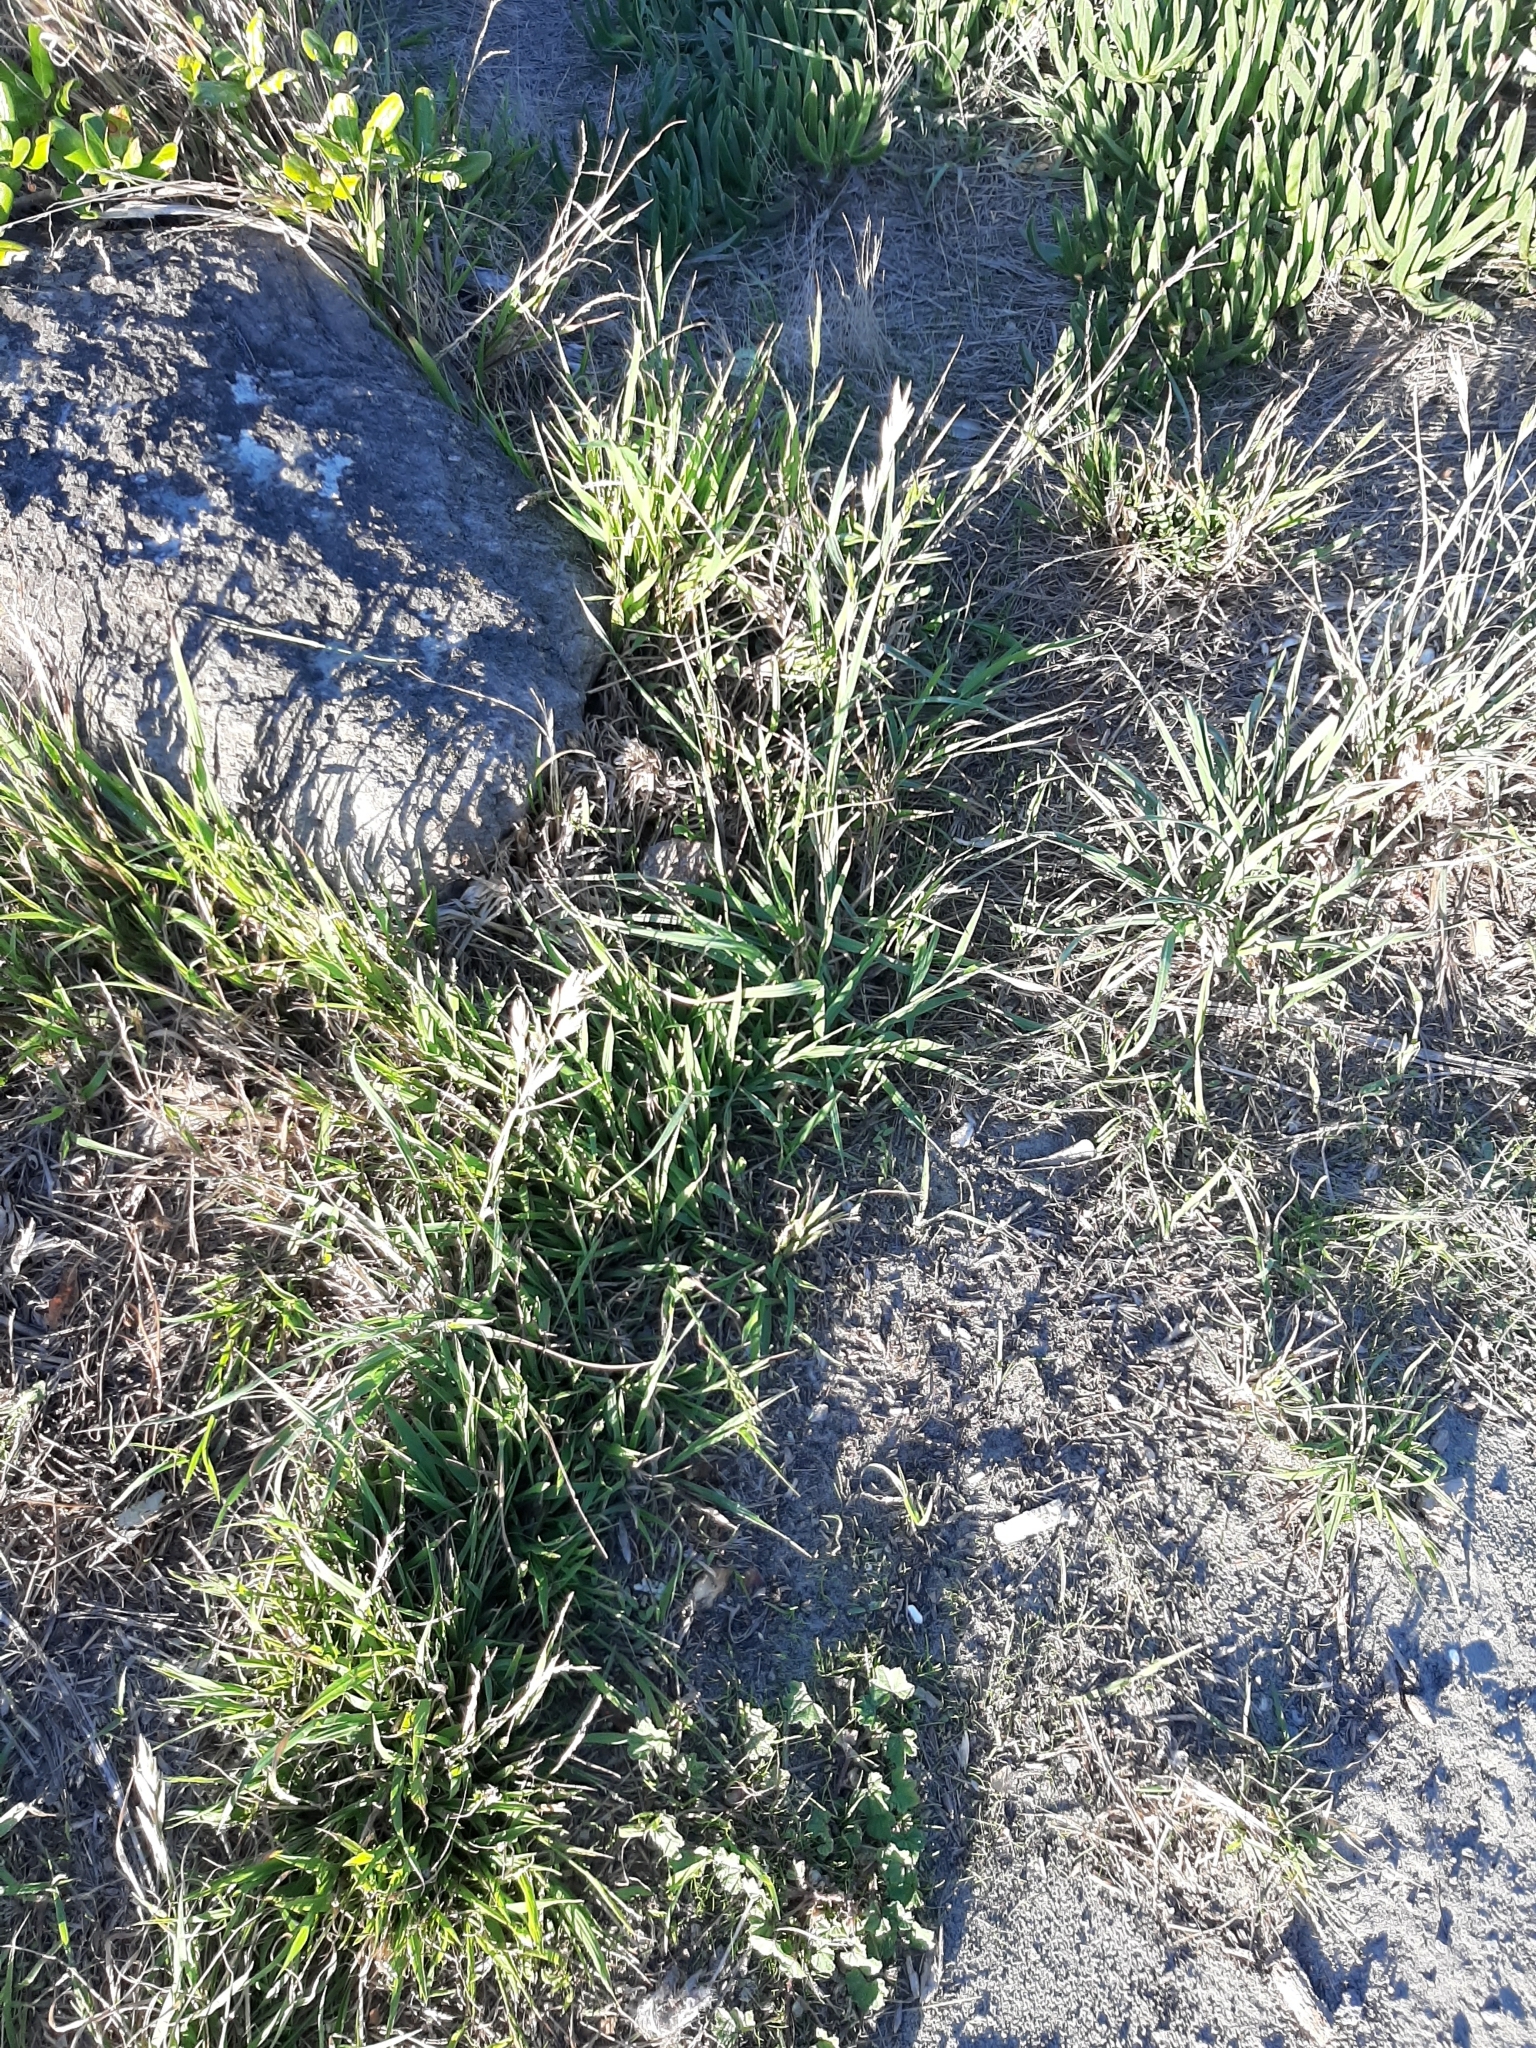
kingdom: Plantae
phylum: Tracheophyta
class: Liliopsida
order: Poales
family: Poaceae
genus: Bromus
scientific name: Bromus catharticus
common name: Rescuegrass
